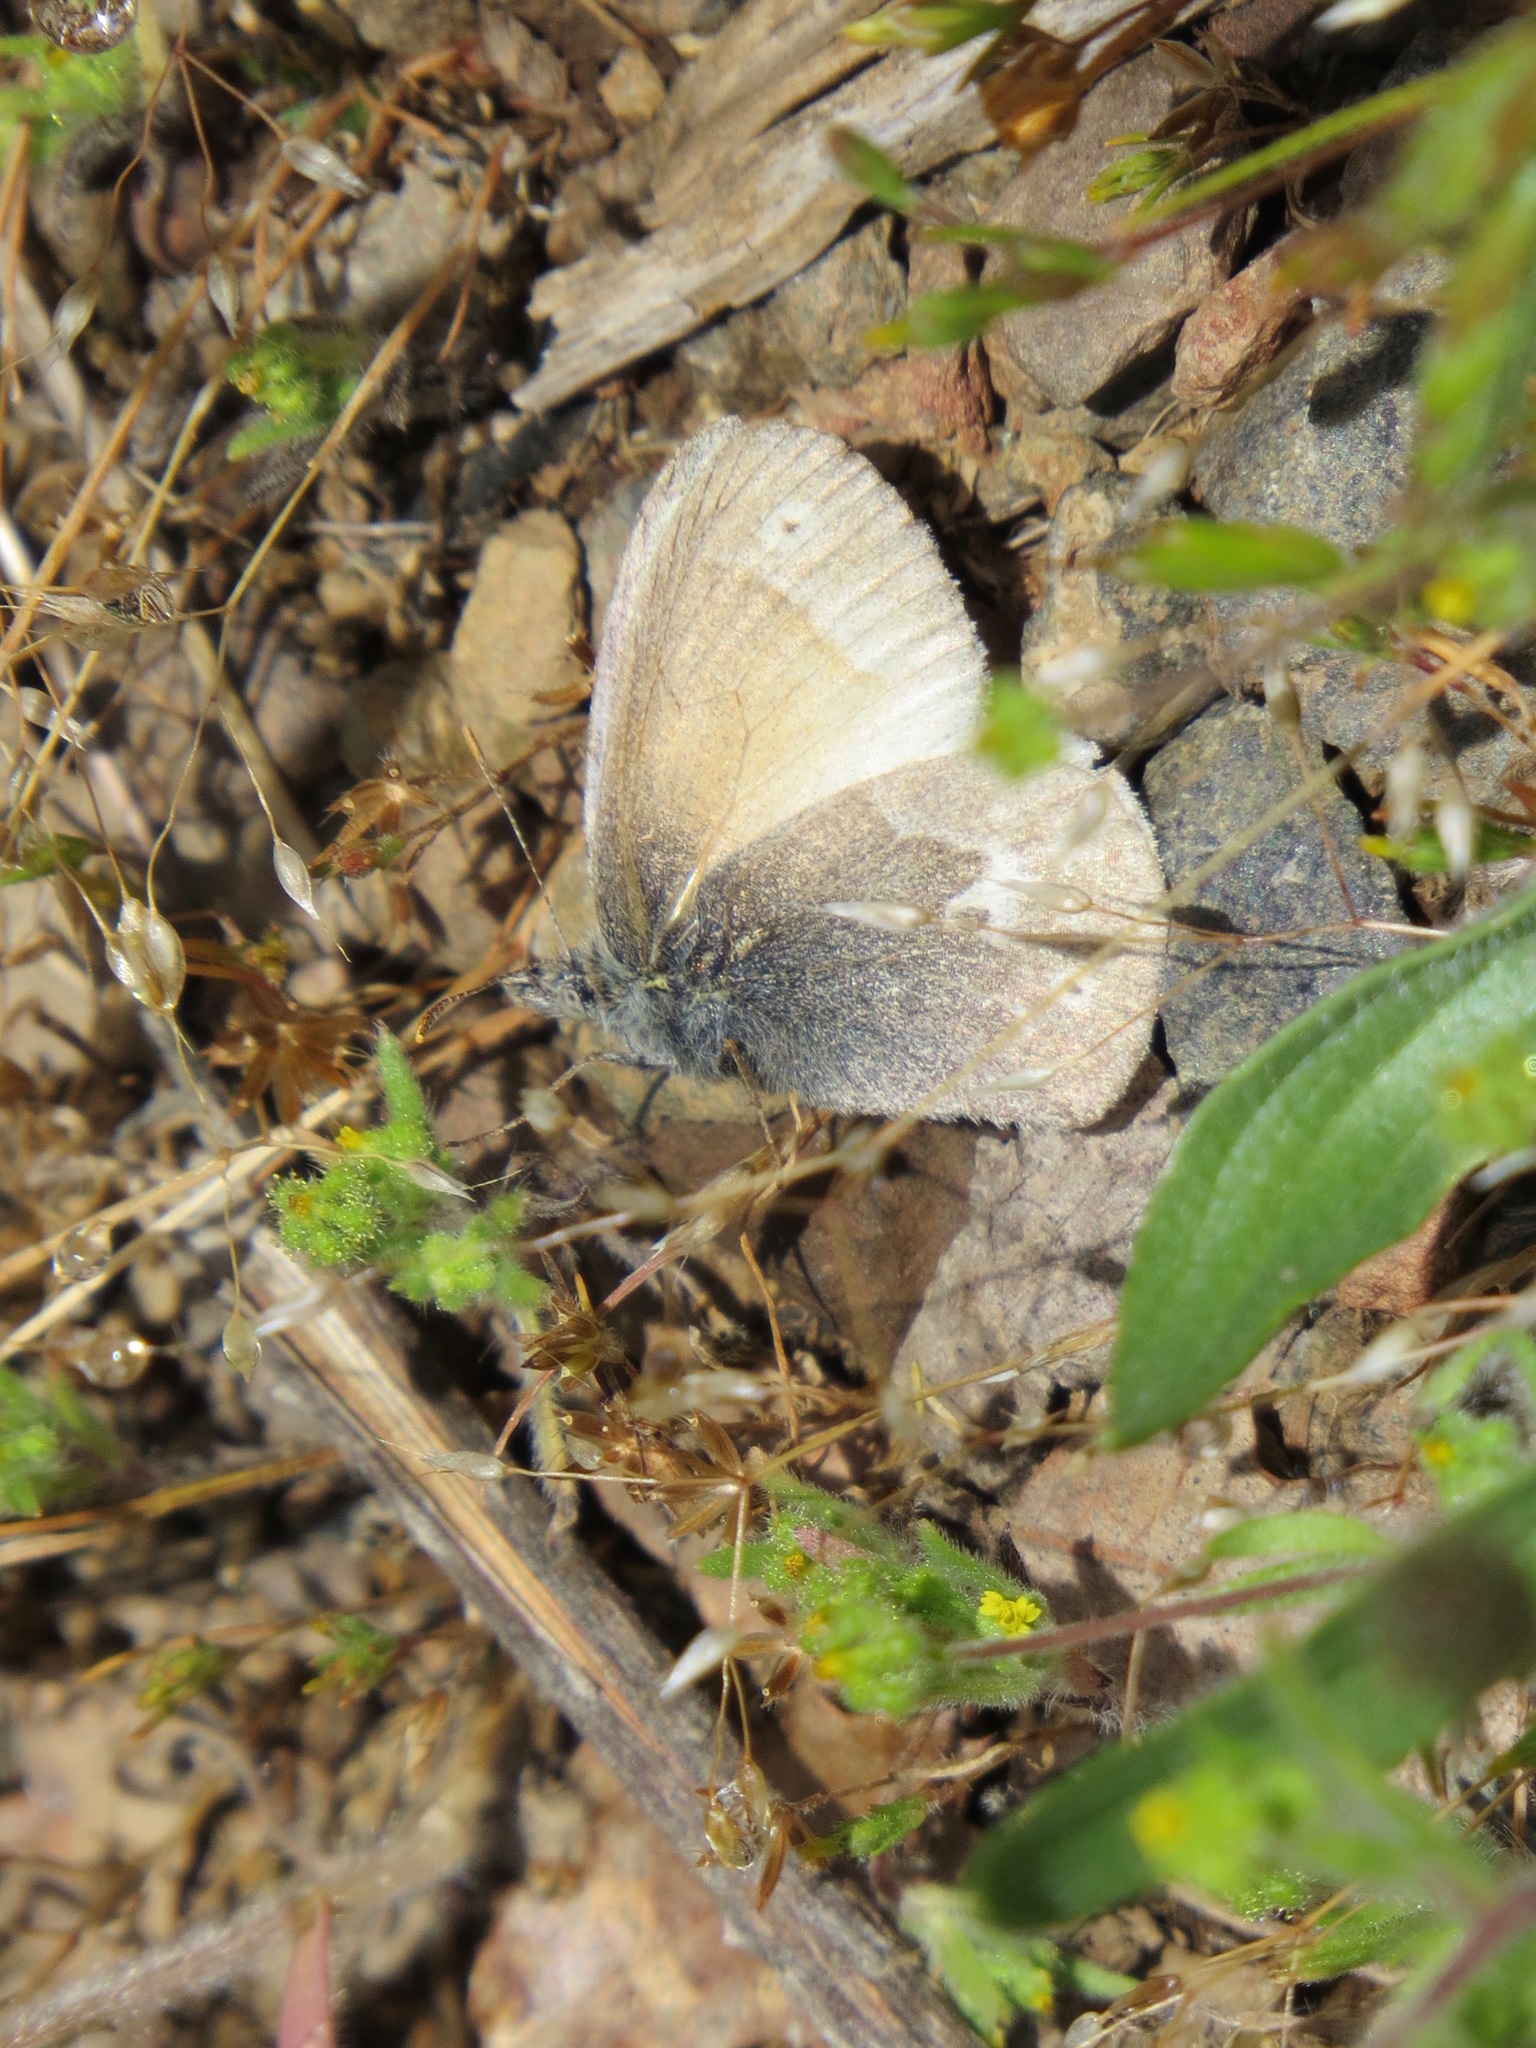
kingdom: Animalia
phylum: Arthropoda
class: Insecta
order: Lepidoptera
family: Nymphalidae
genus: Coenonympha
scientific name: Coenonympha california
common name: Common ringlet
